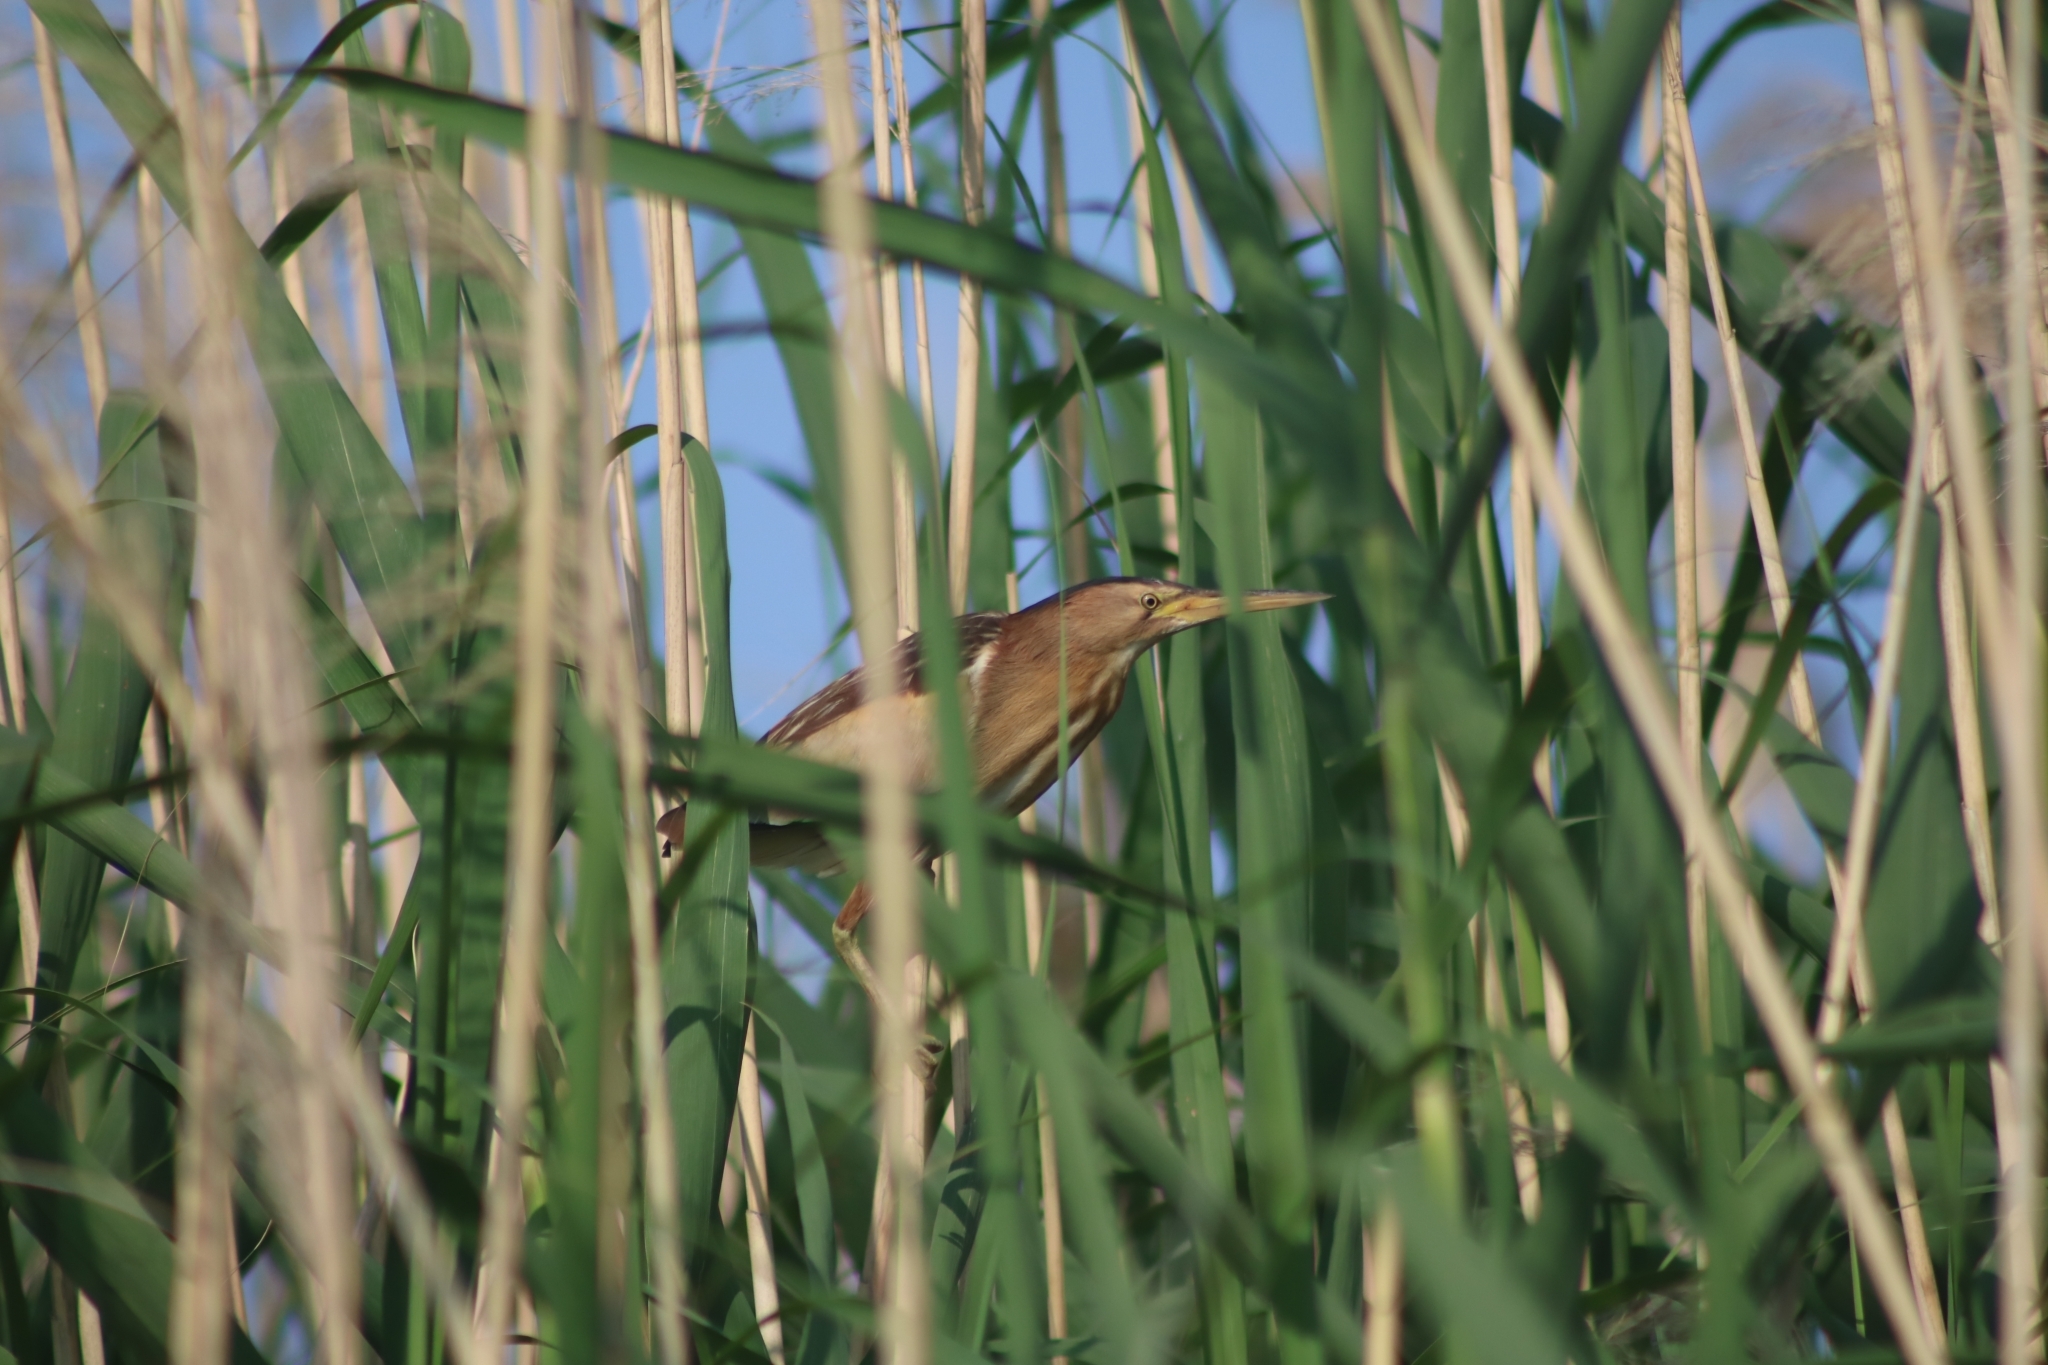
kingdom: Animalia
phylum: Chordata
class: Aves
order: Pelecaniformes
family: Ardeidae
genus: Ixobrychus
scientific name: Ixobrychus minutus
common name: Little bittern
